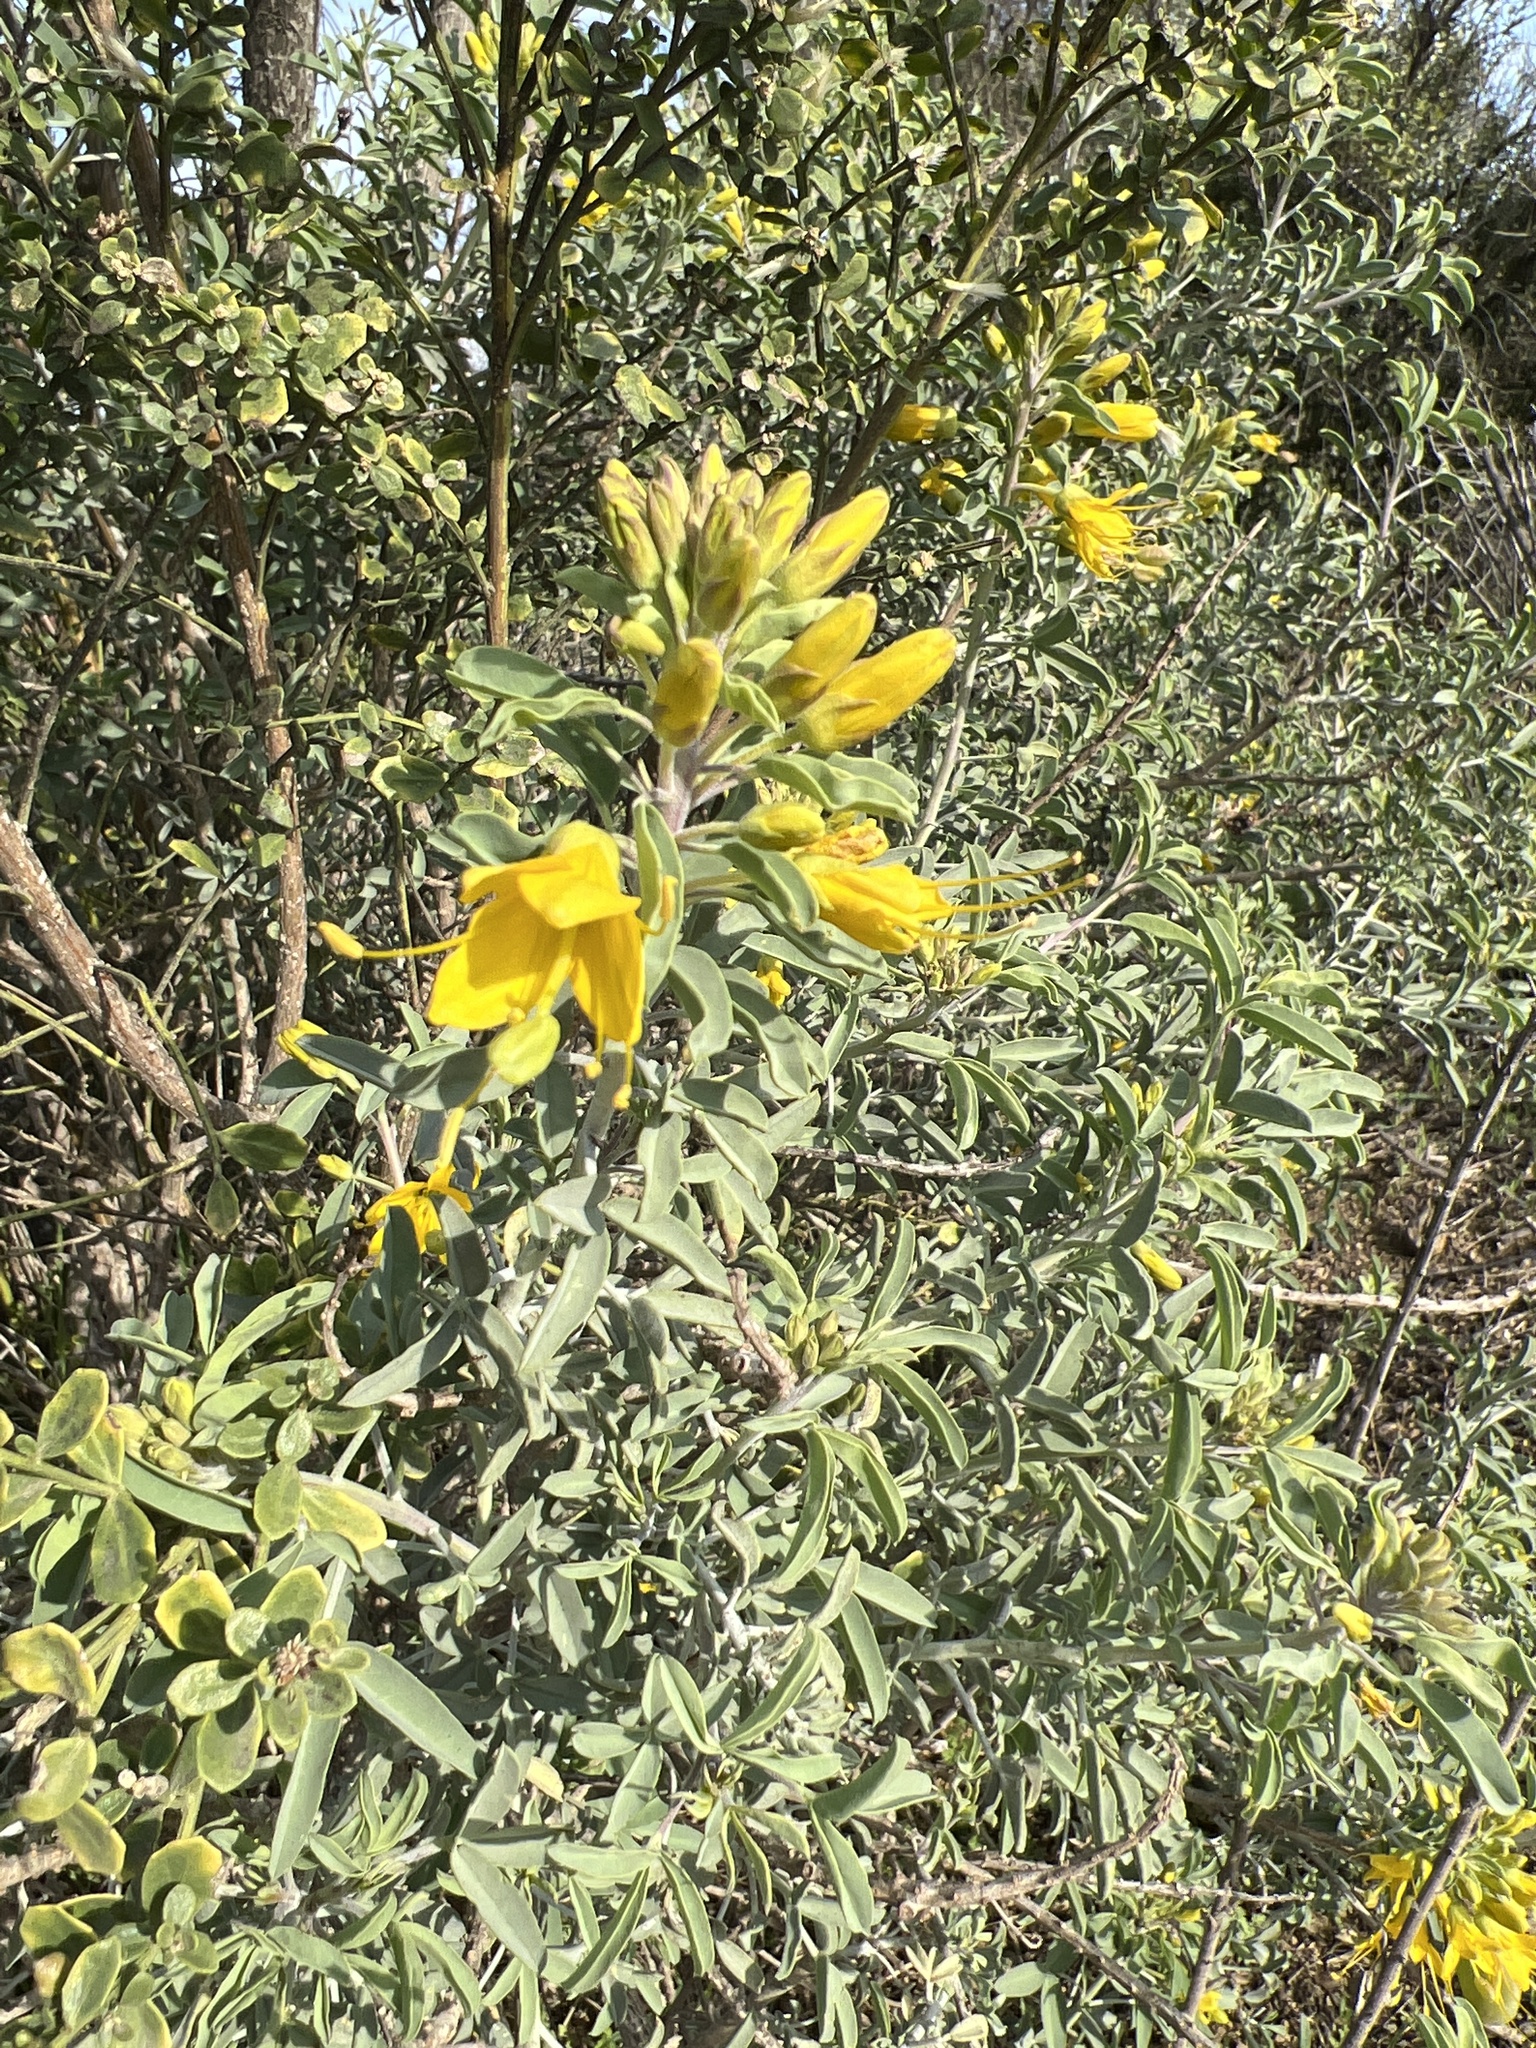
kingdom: Plantae
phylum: Tracheophyta
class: Magnoliopsida
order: Brassicales
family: Cleomaceae
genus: Cleomella
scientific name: Cleomella arborea
